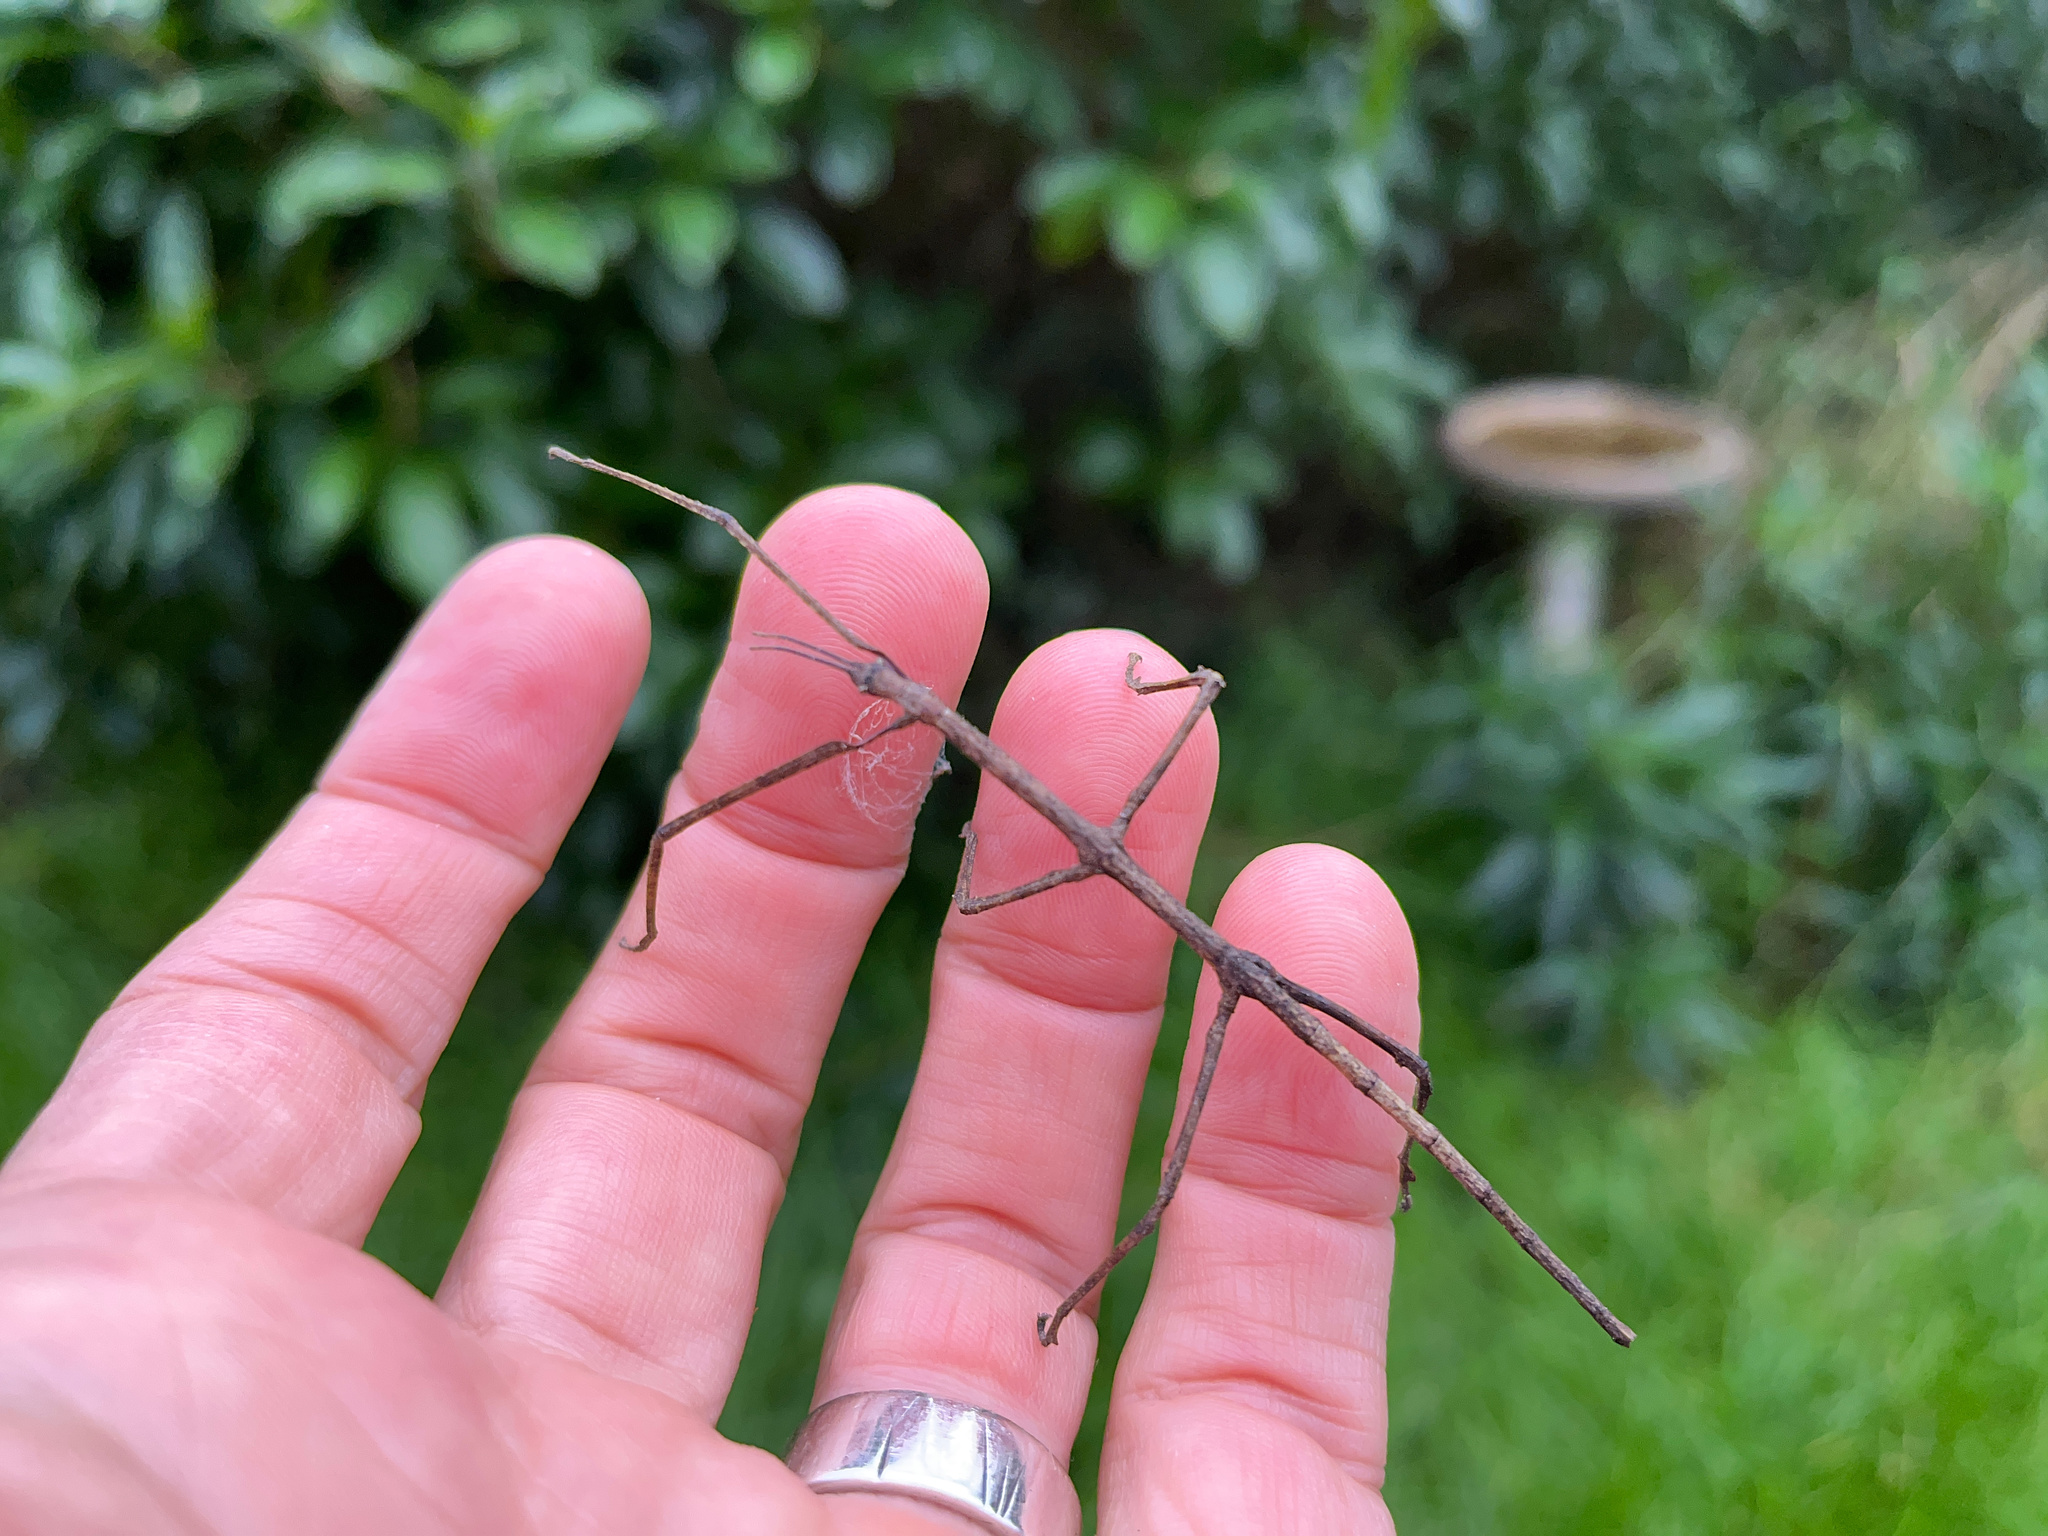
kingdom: Animalia
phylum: Arthropoda
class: Insecta
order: Phasmida
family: Phasmatidae
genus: Argosarchus
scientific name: Argosarchus horridus
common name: Bristly stick insect
